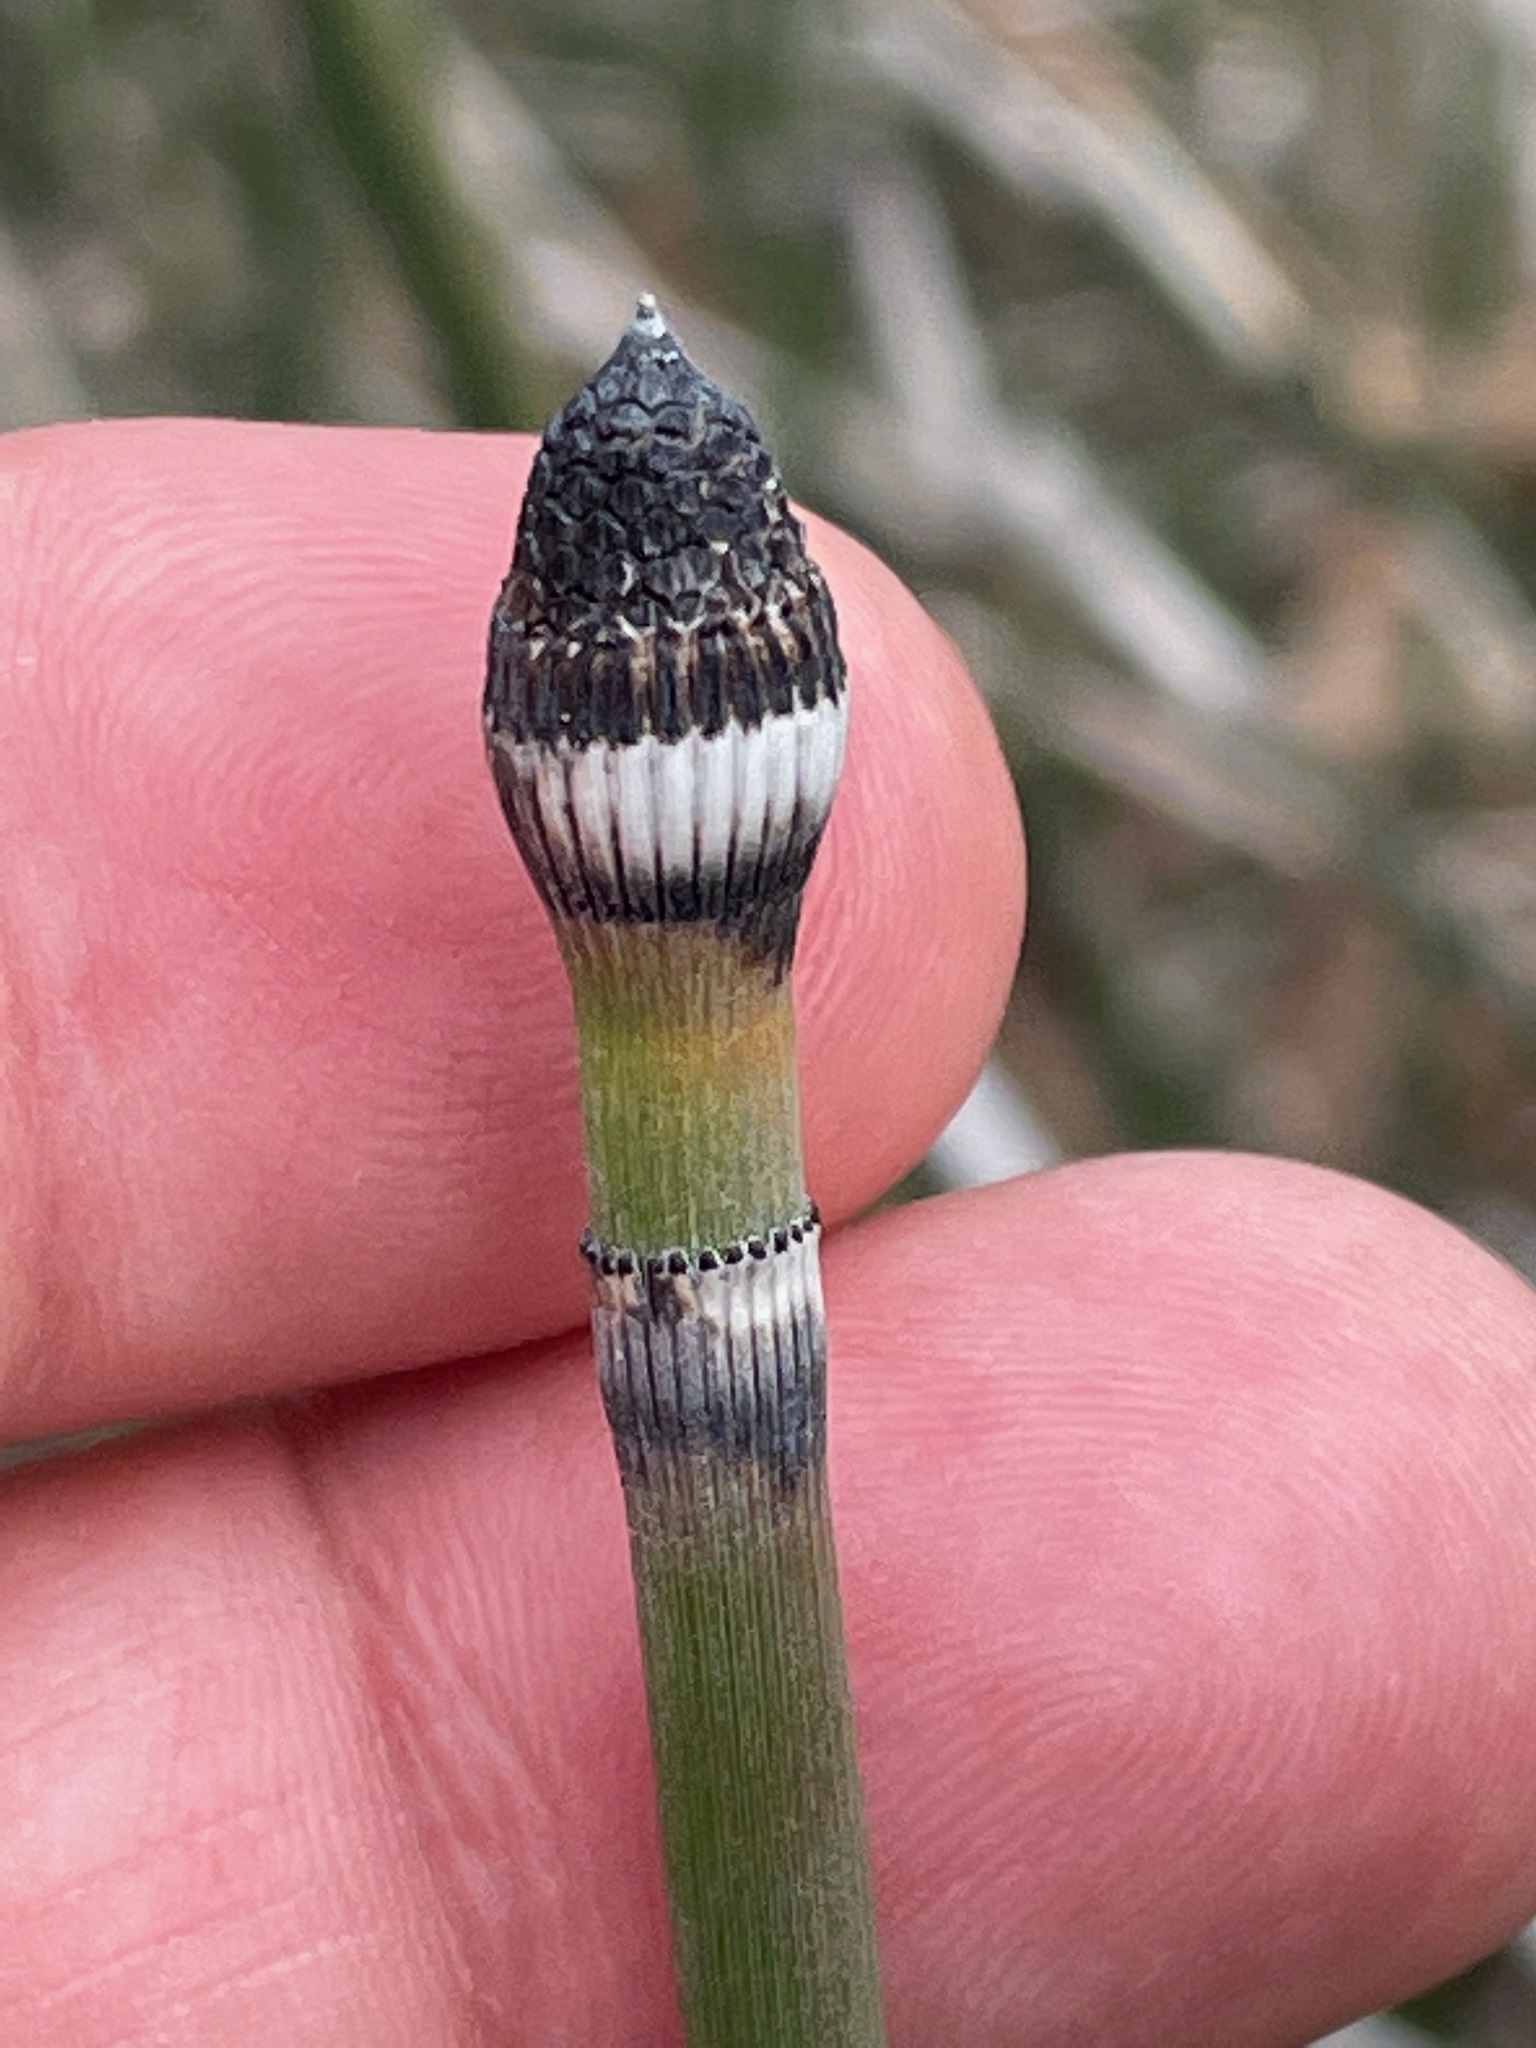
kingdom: Plantae
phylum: Tracheophyta
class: Polypodiopsida
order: Equisetales
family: Equisetaceae
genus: Equisetum
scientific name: Equisetum hyemale
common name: Rough horsetail
